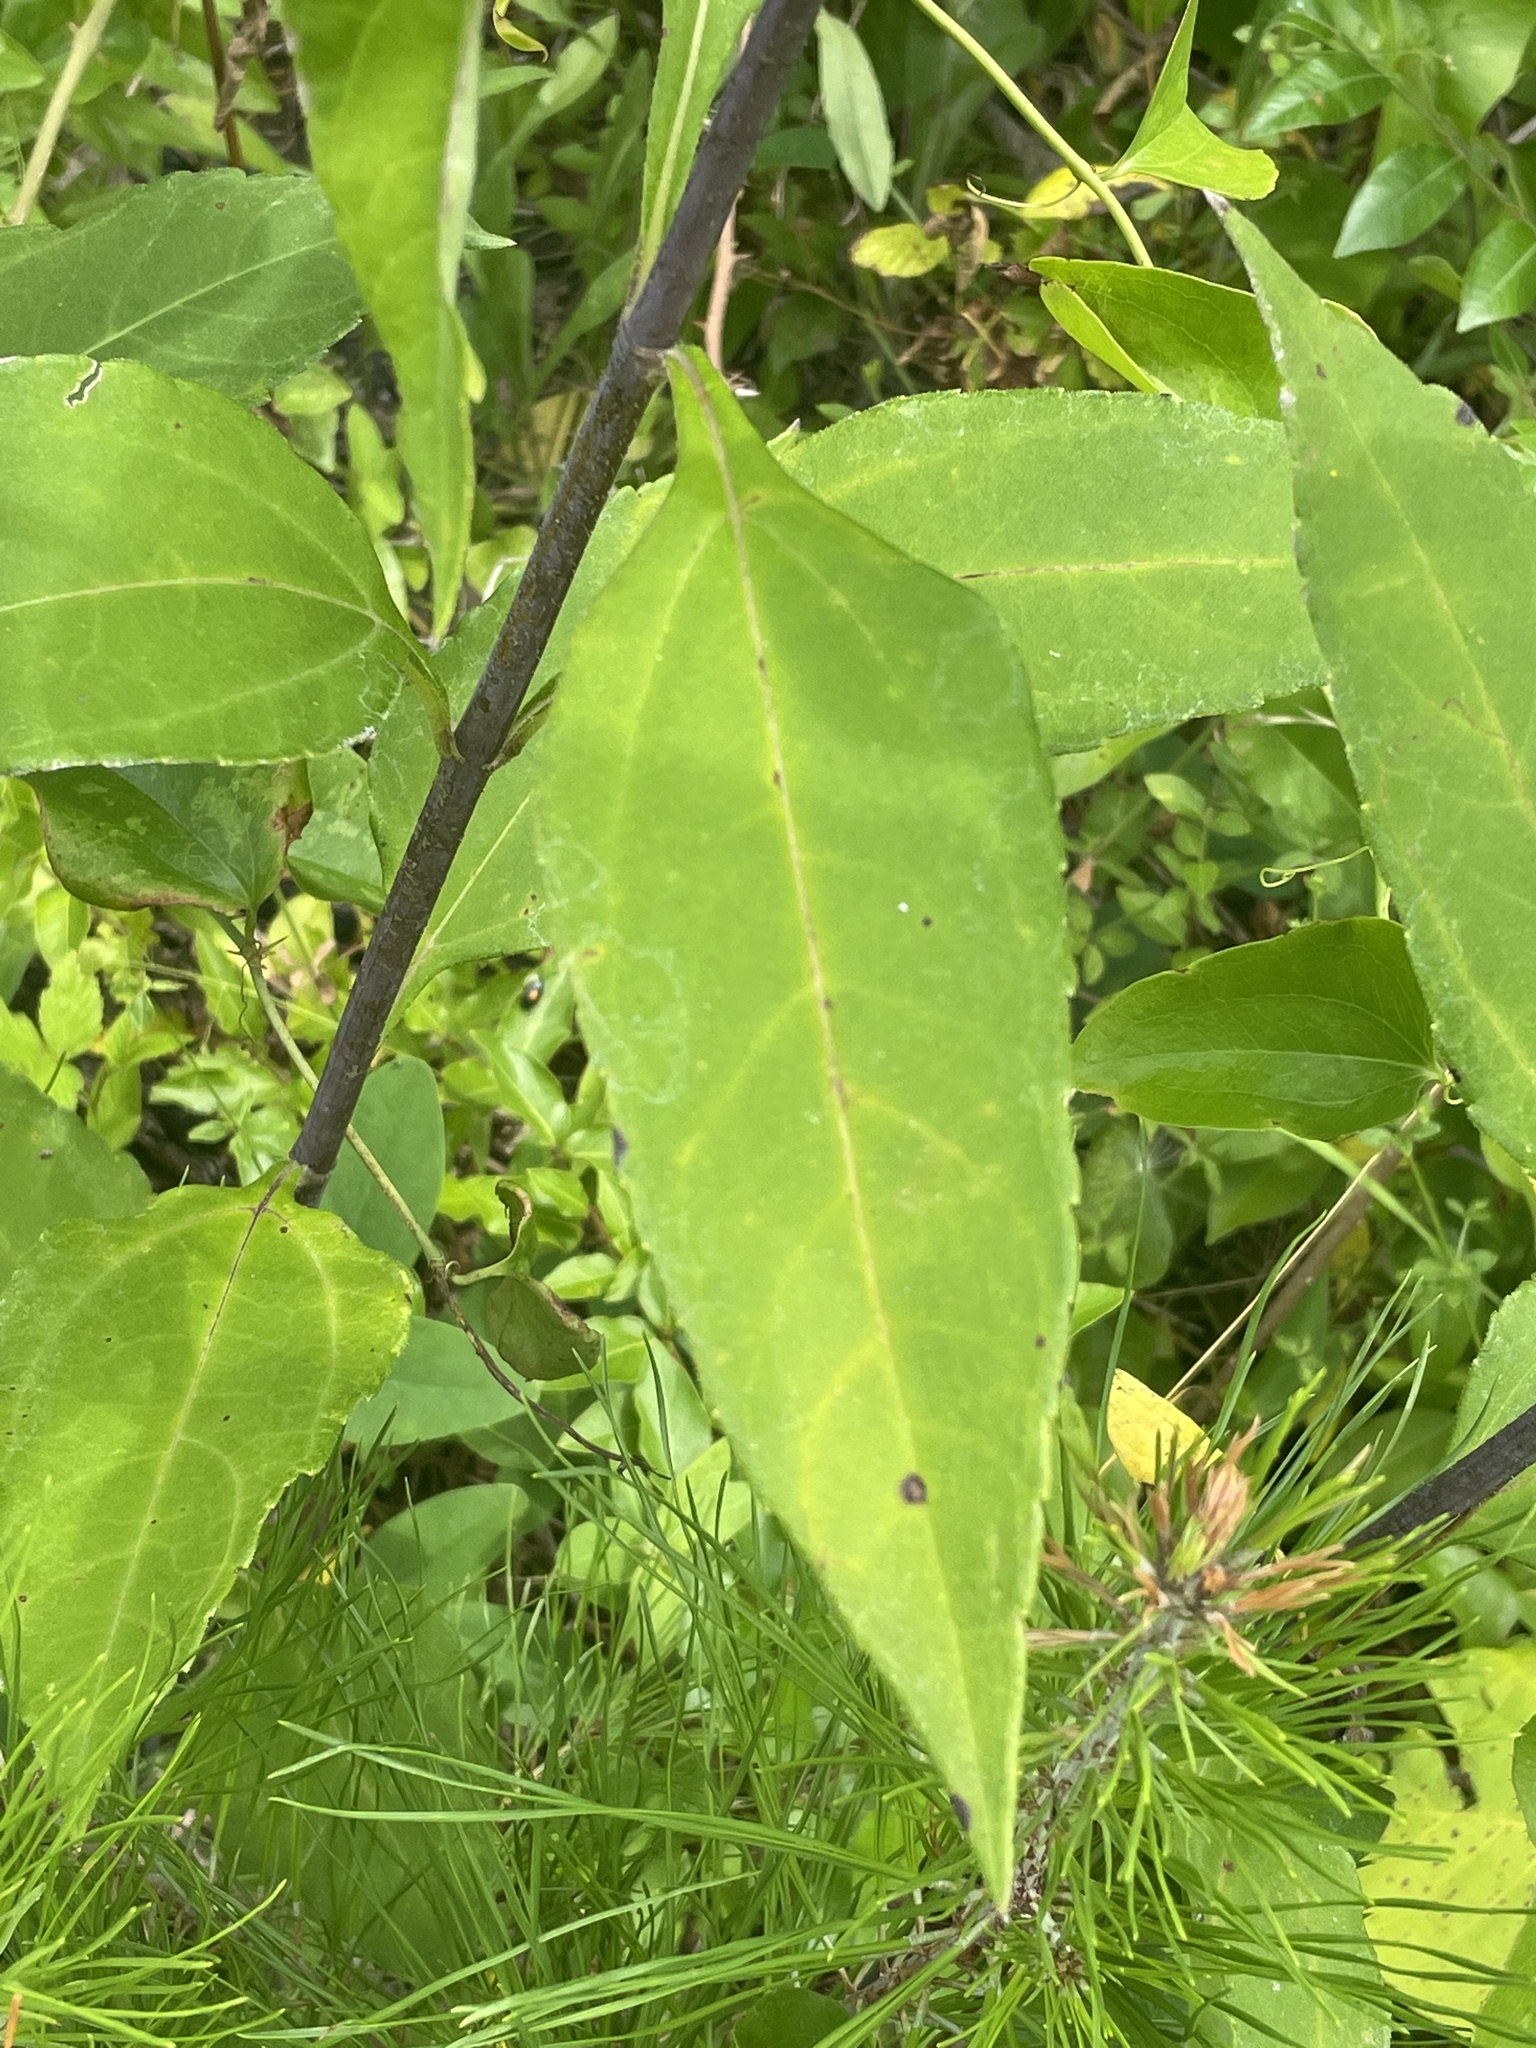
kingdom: Plantae
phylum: Tracheophyta
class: Magnoliopsida
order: Asterales
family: Asteraceae
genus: Helianthus
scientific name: Helianthus resinosus
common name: Resin-dot sunflower
